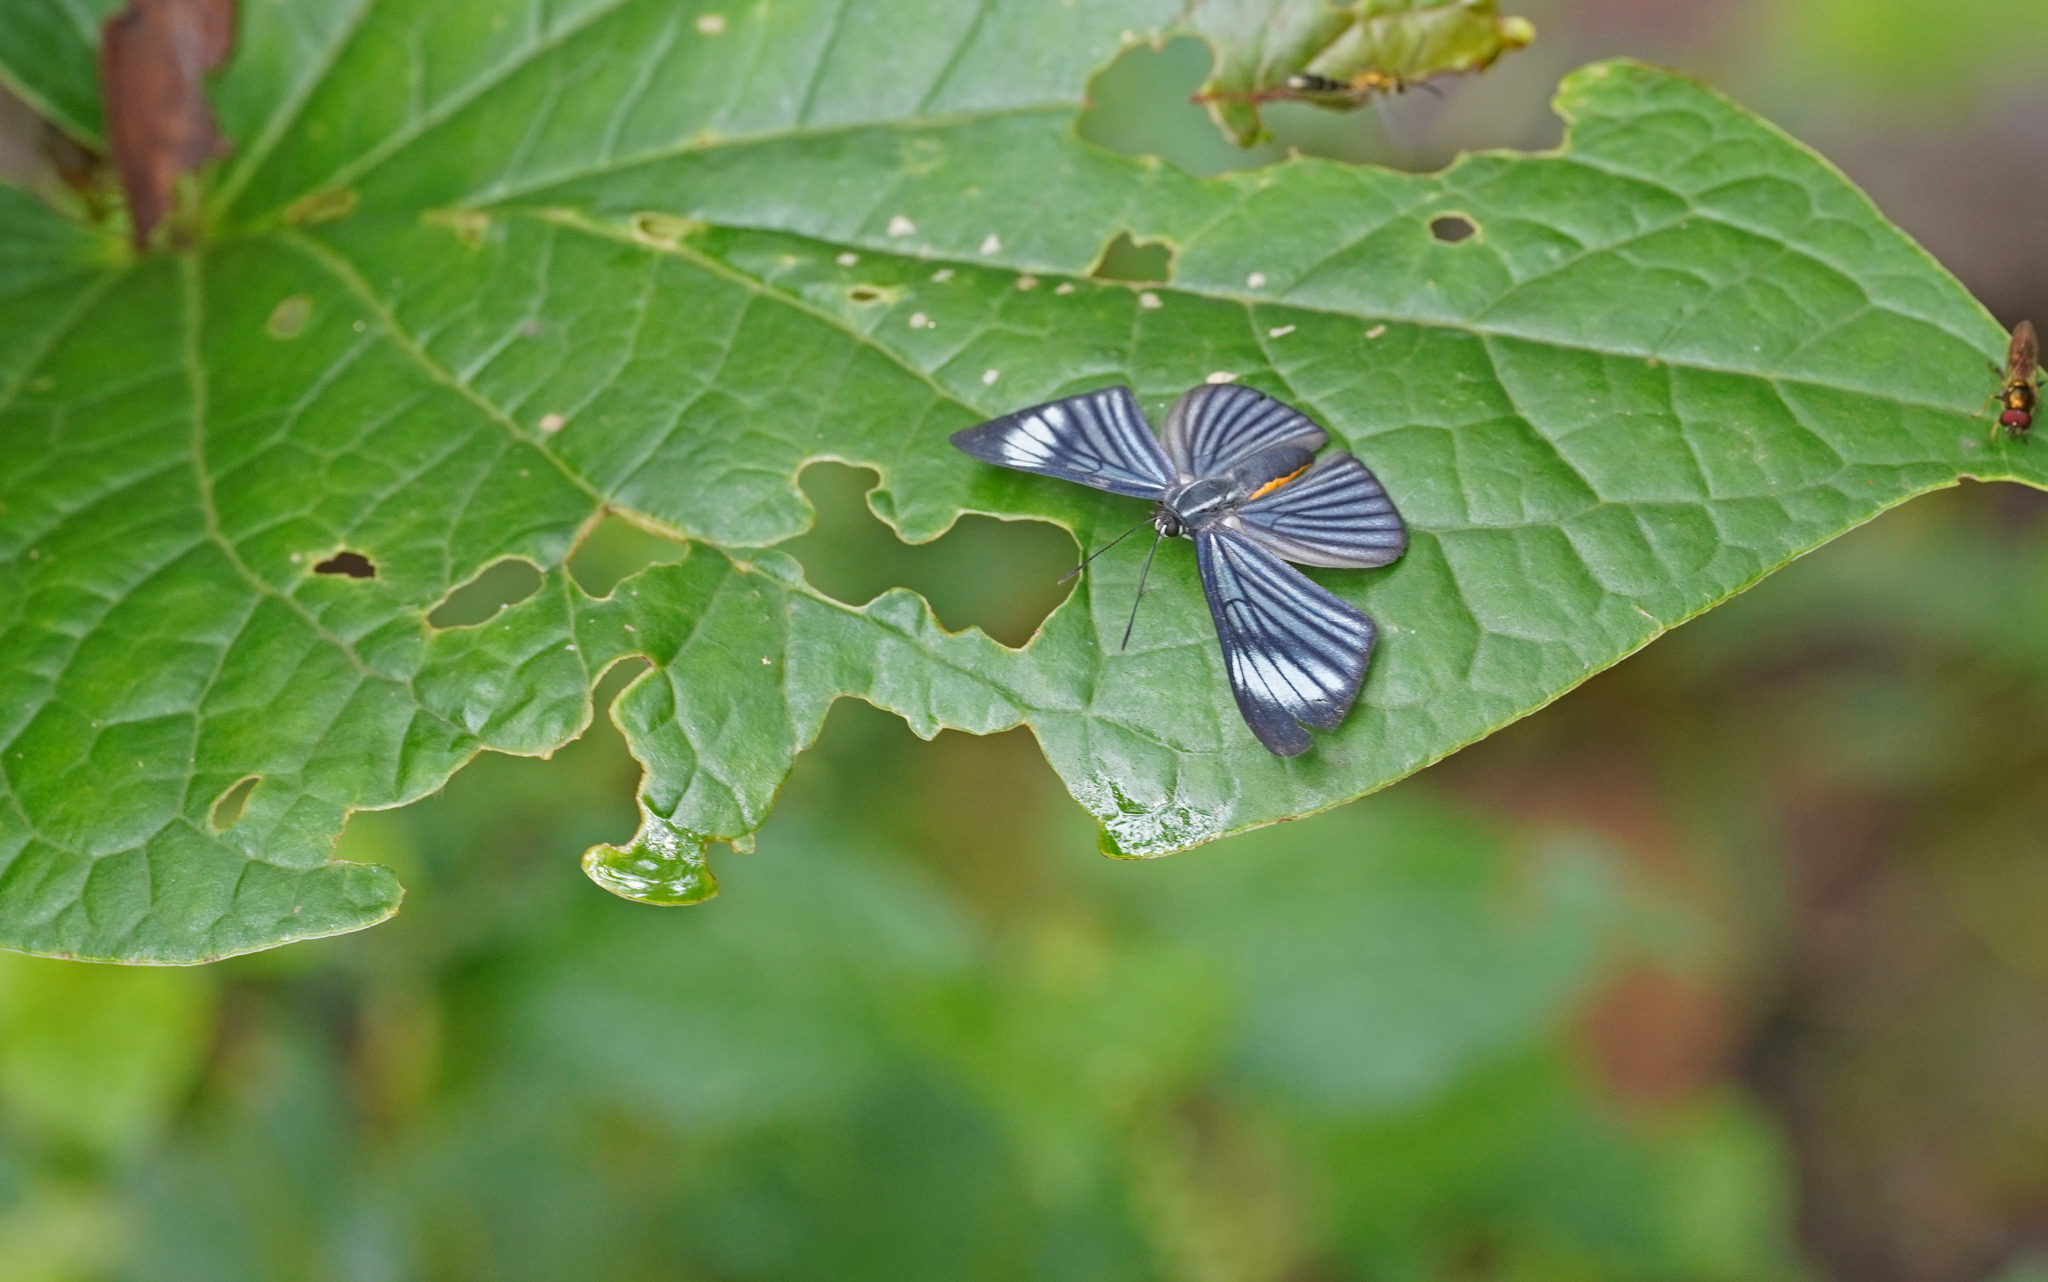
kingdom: Animalia
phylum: Arthropoda
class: Insecta
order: Lepidoptera
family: Riodinidae
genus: Brachyglenis
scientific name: Brachyglenis esthema
